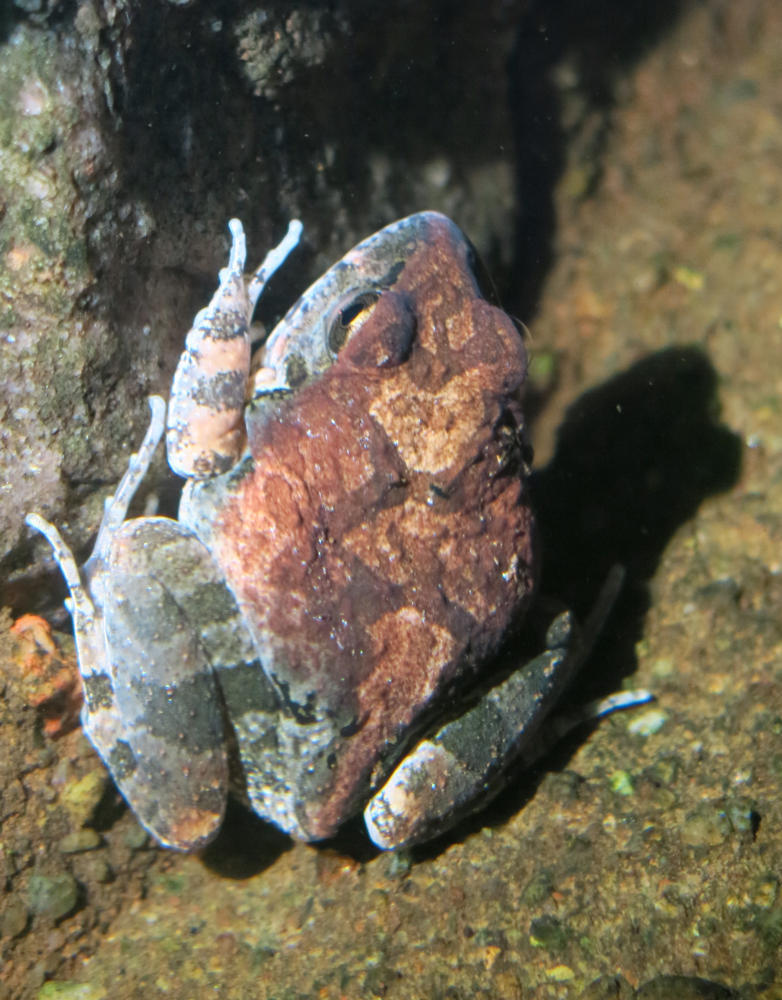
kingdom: Animalia
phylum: Chordata
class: Amphibia
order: Anura
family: Pyxicephalidae
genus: Tomopterna
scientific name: Tomopterna natalensis
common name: Natal sand frog
